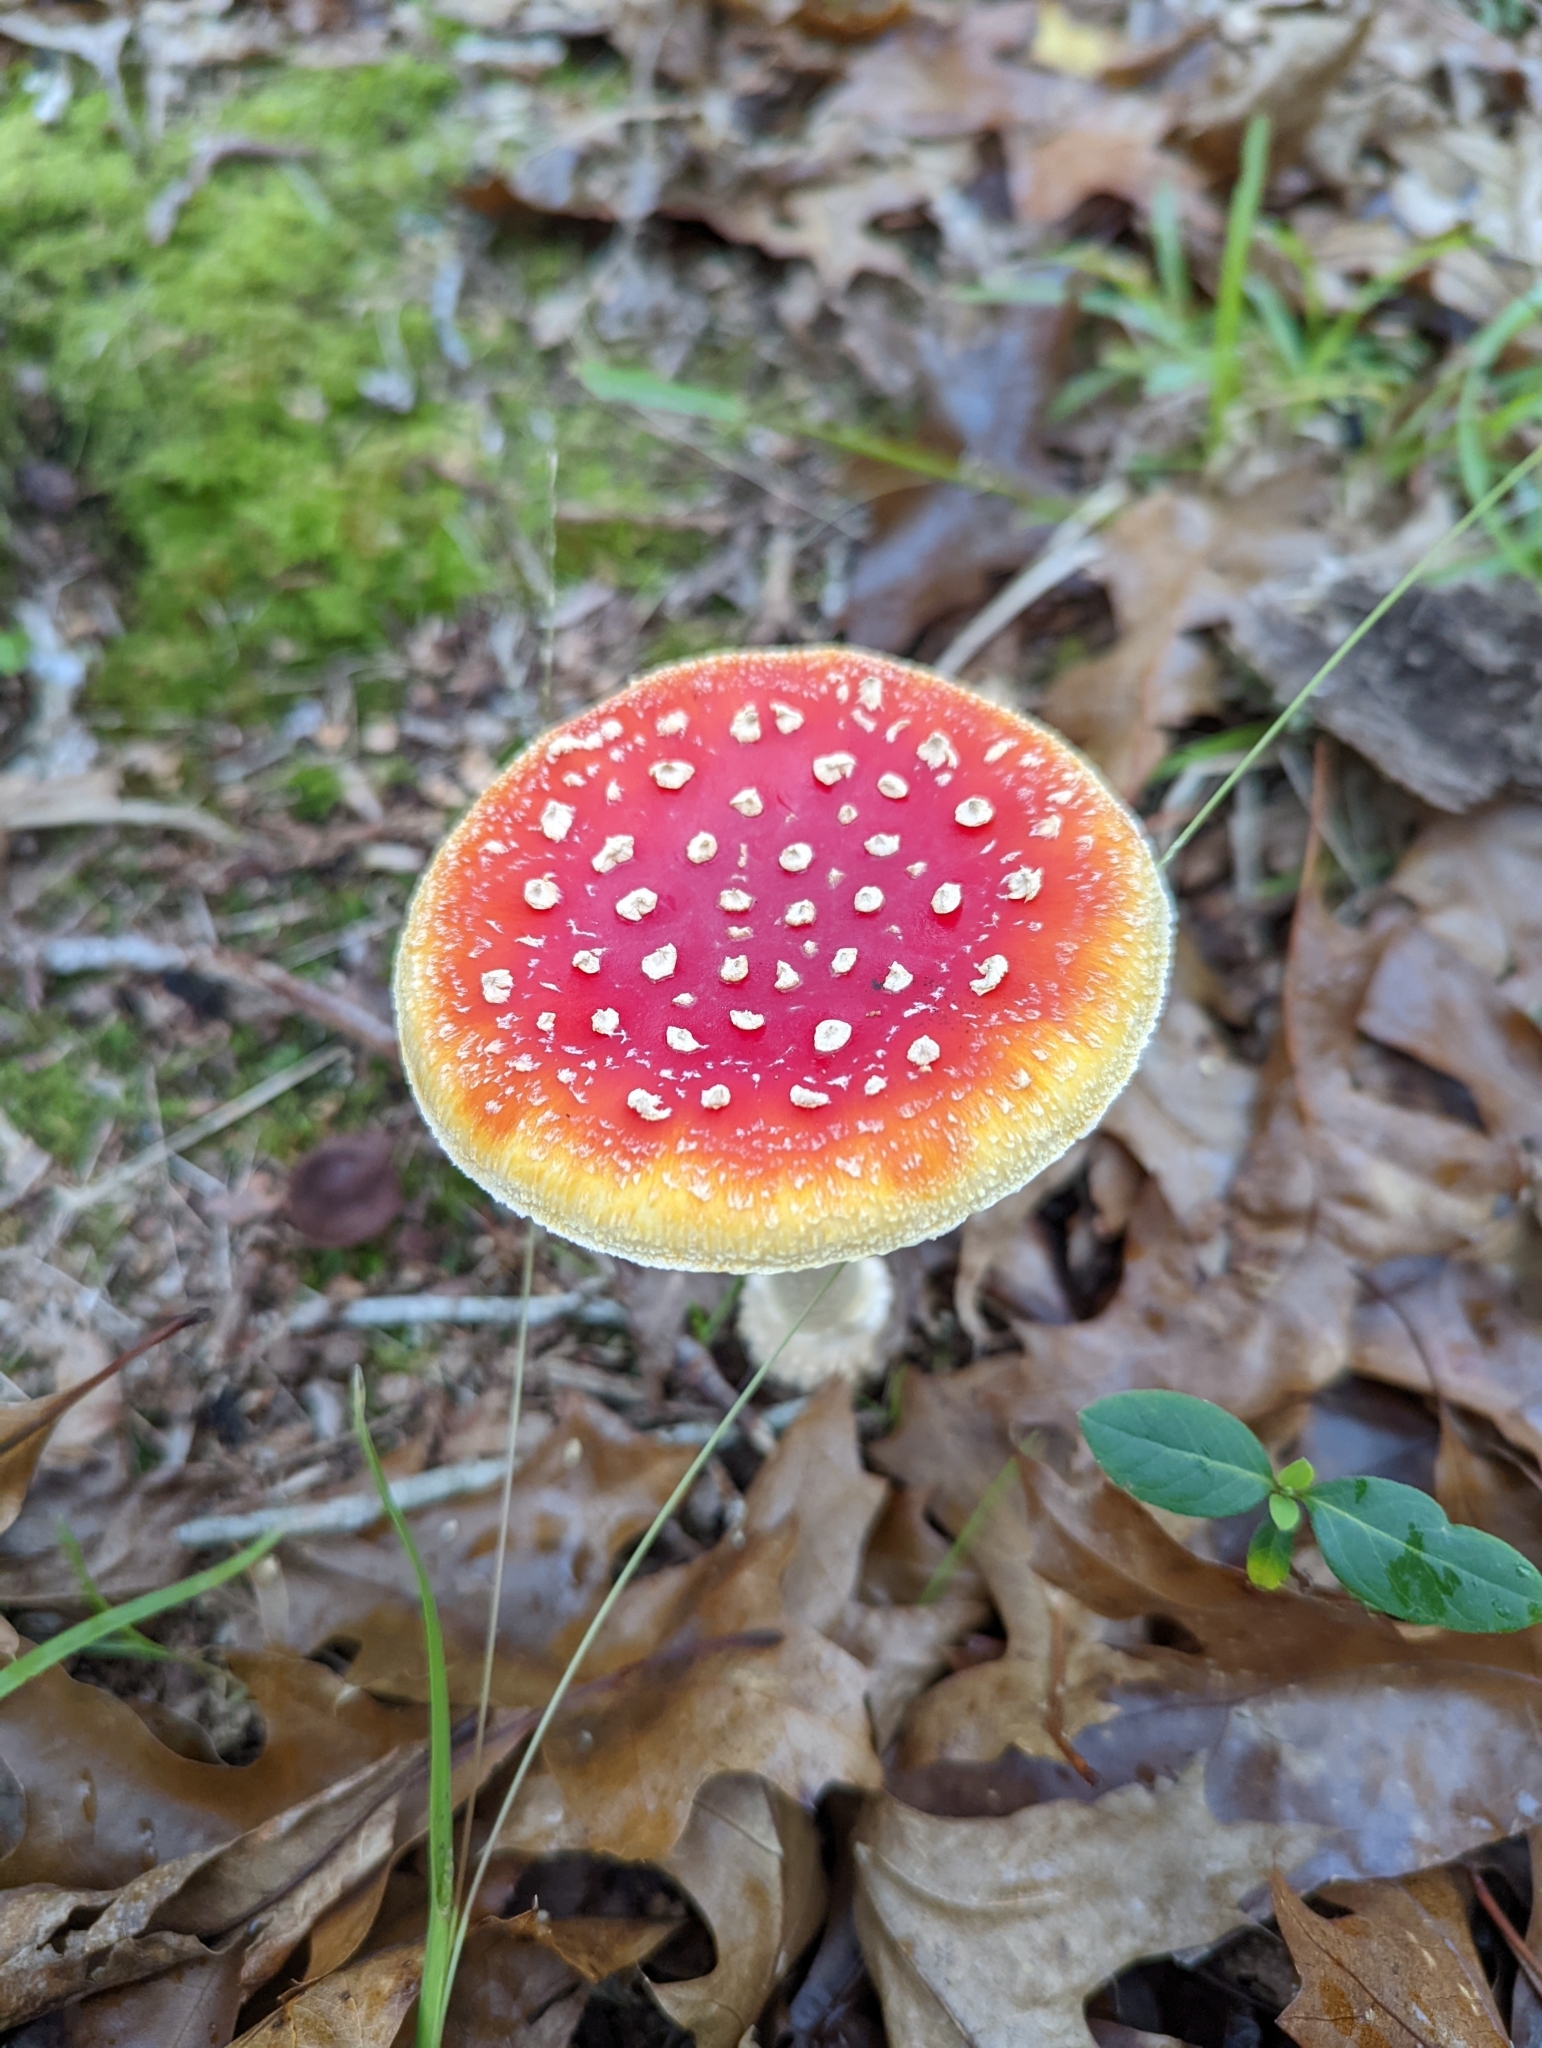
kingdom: Fungi
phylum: Basidiomycota
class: Agaricomycetes
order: Agaricales
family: Amanitaceae
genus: Amanita
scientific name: Amanita muscaria
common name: Fly agaric
